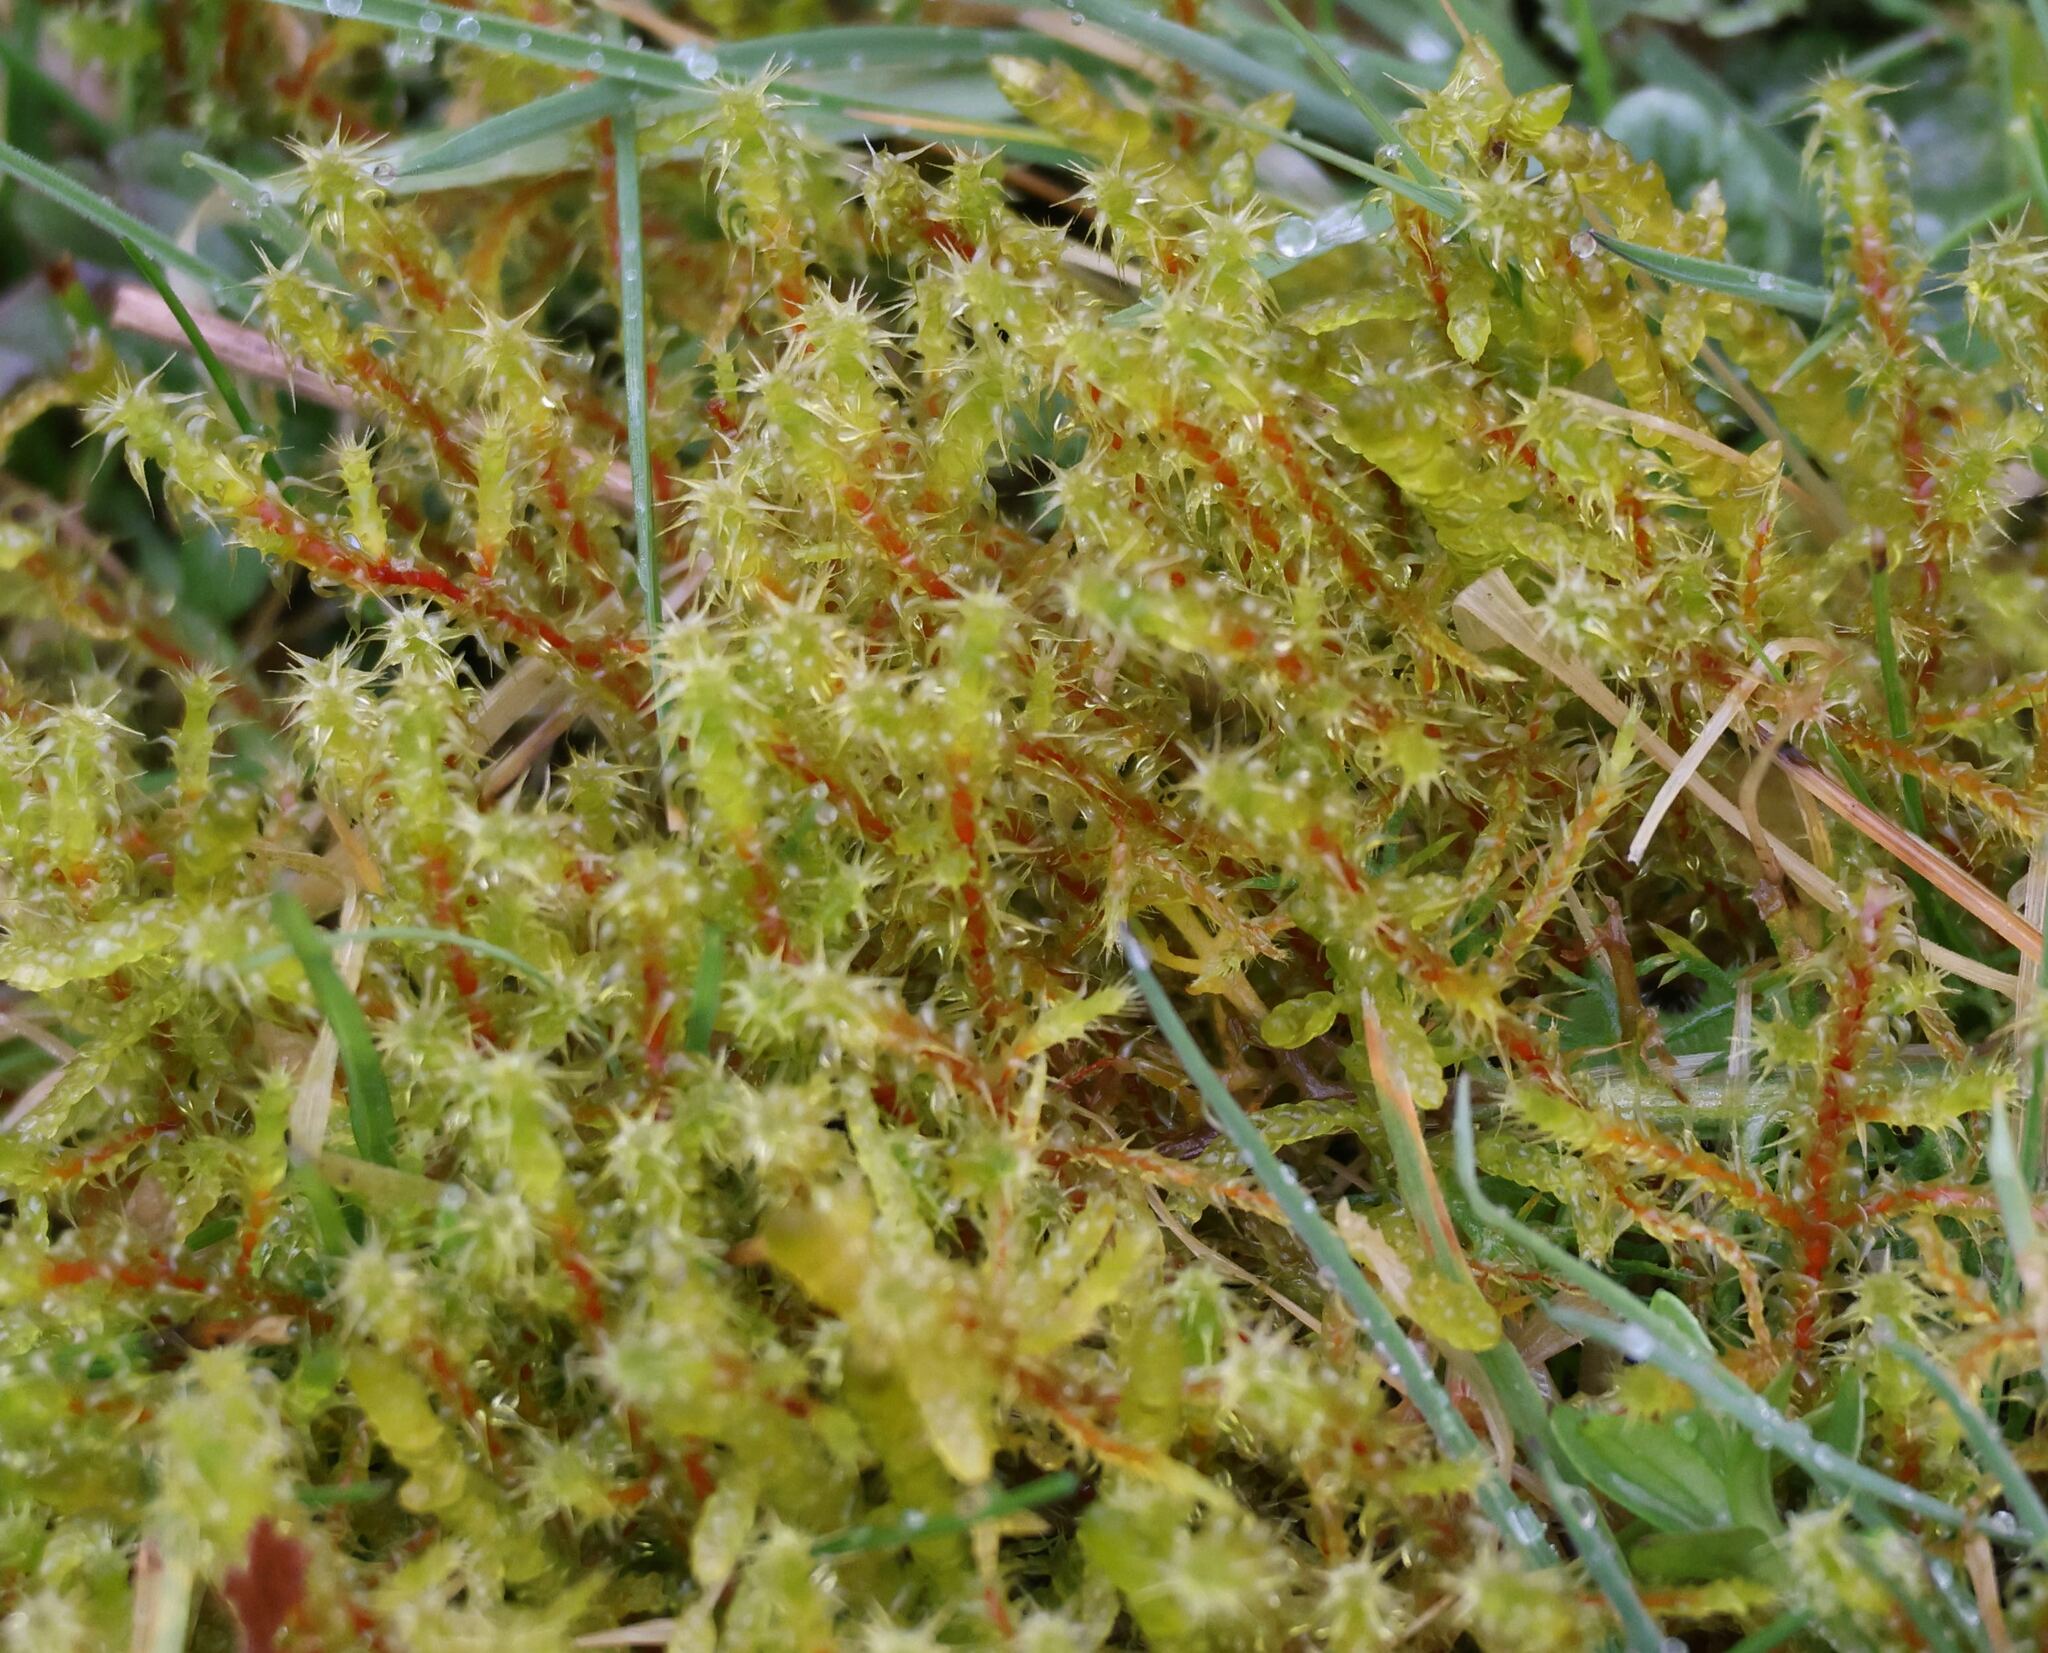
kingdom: Plantae
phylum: Bryophyta
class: Bryopsida
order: Hypnales
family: Hylocomiaceae
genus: Rhytidiadelphus
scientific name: Rhytidiadelphus squarrosus
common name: Springy turf-moss
